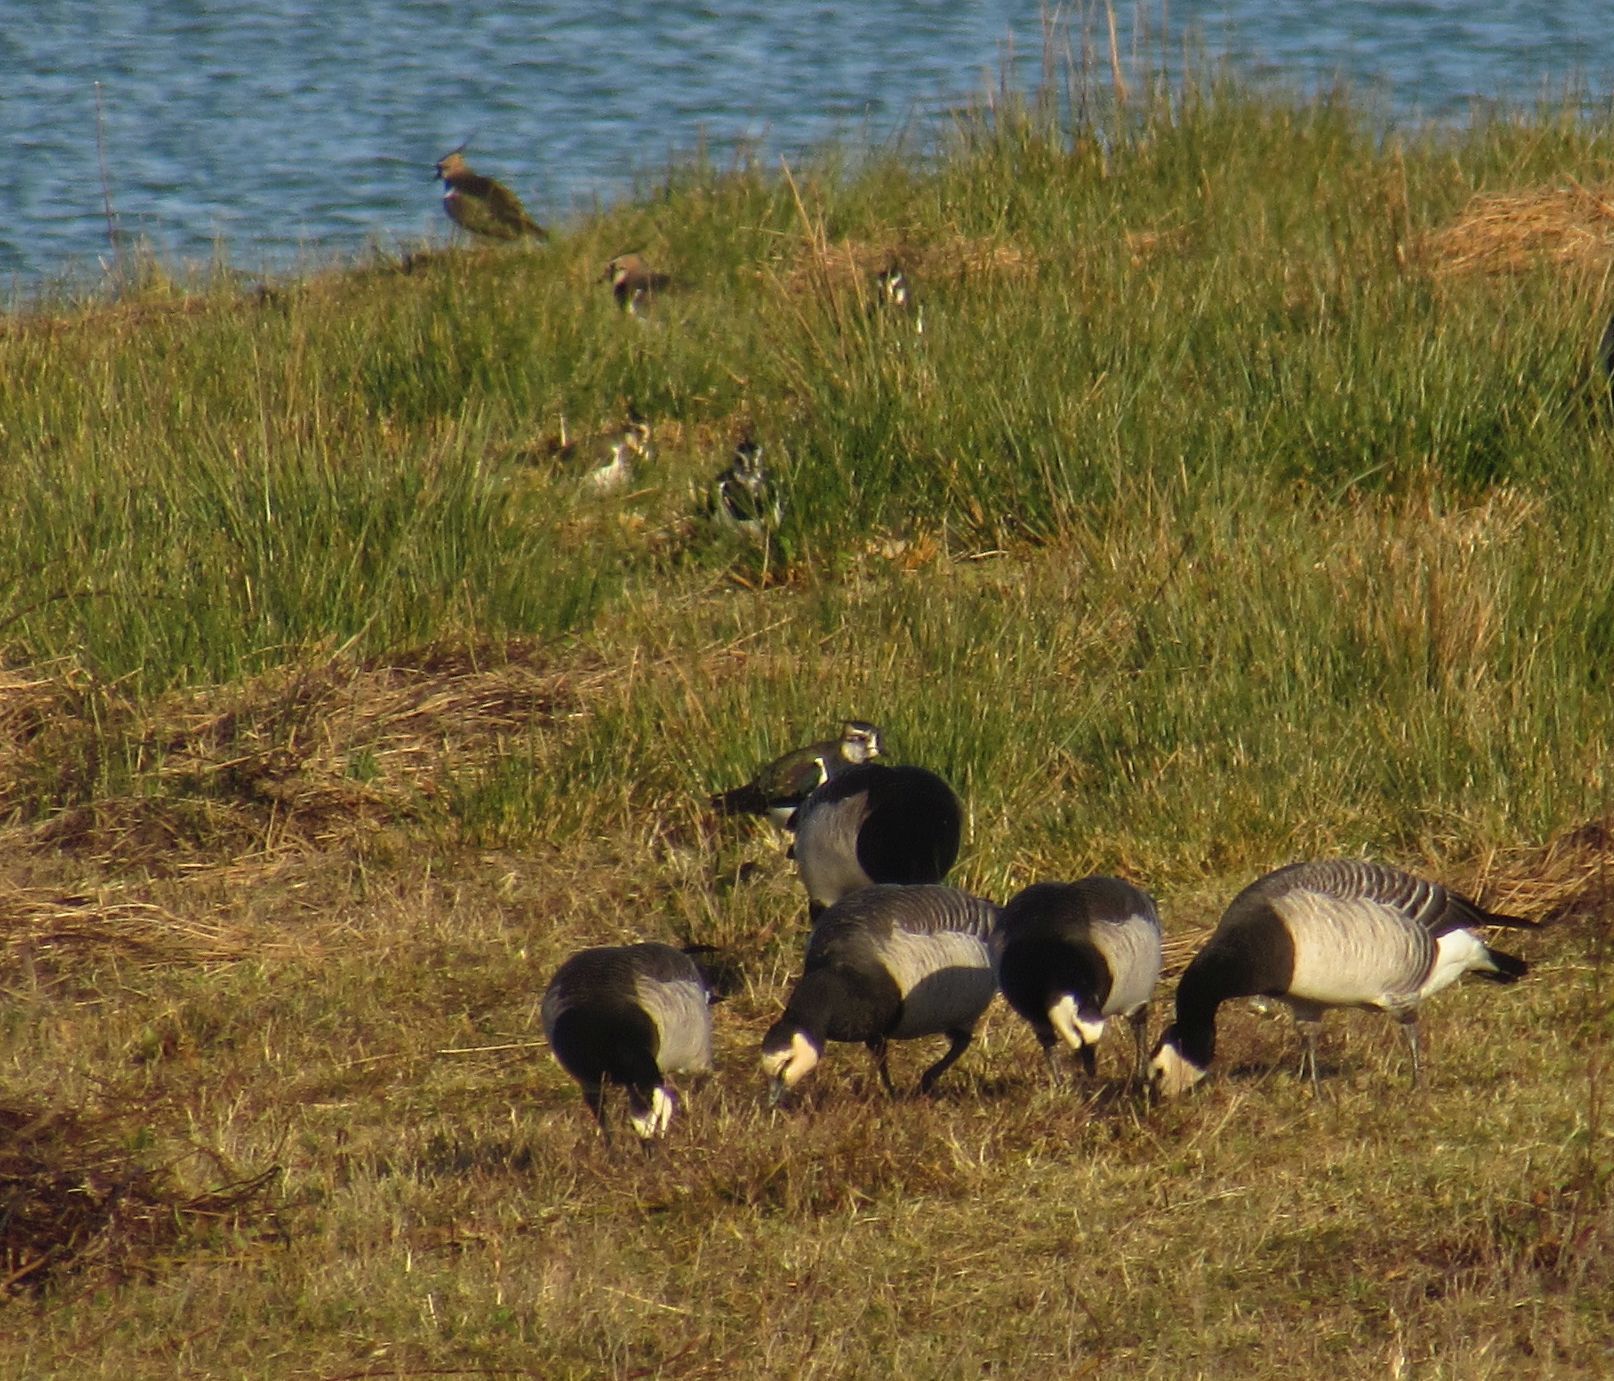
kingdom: Animalia
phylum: Chordata
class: Aves
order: Anseriformes
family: Anatidae
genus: Branta
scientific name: Branta leucopsis
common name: Barnacle goose
